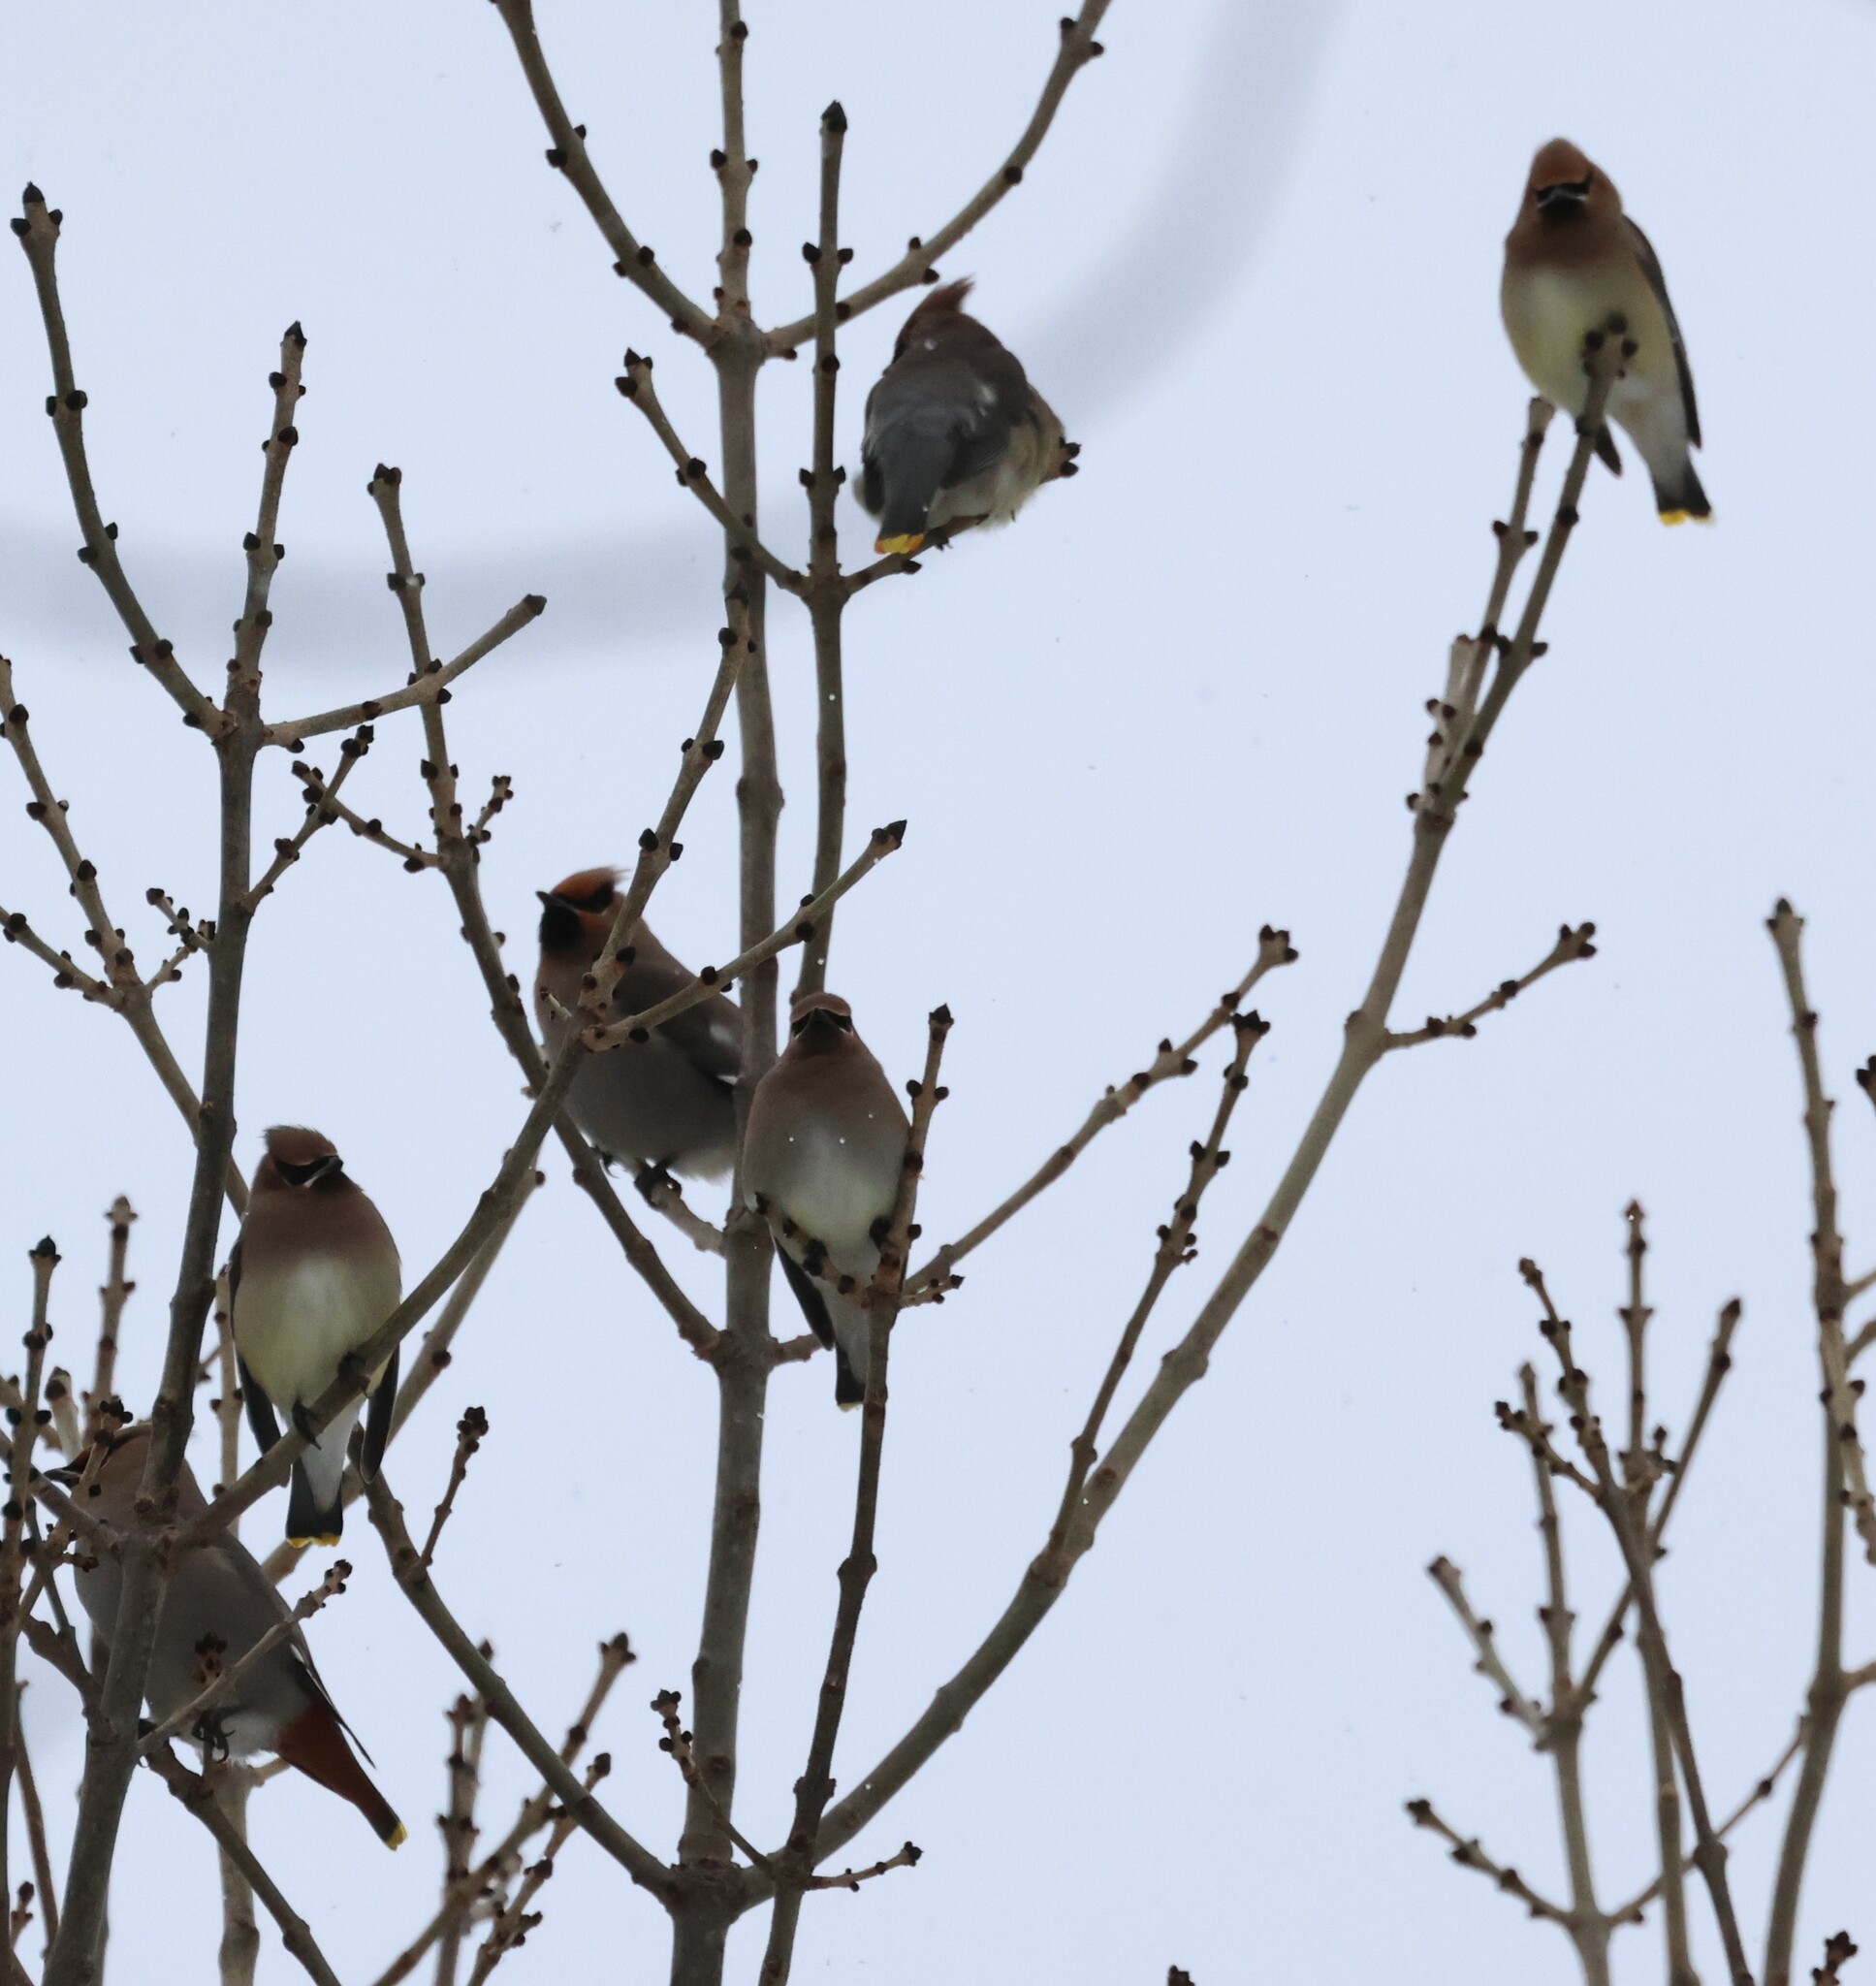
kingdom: Animalia
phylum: Chordata
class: Aves
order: Passeriformes
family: Bombycillidae
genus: Bombycilla
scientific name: Bombycilla cedrorum
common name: Cedar waxwing
